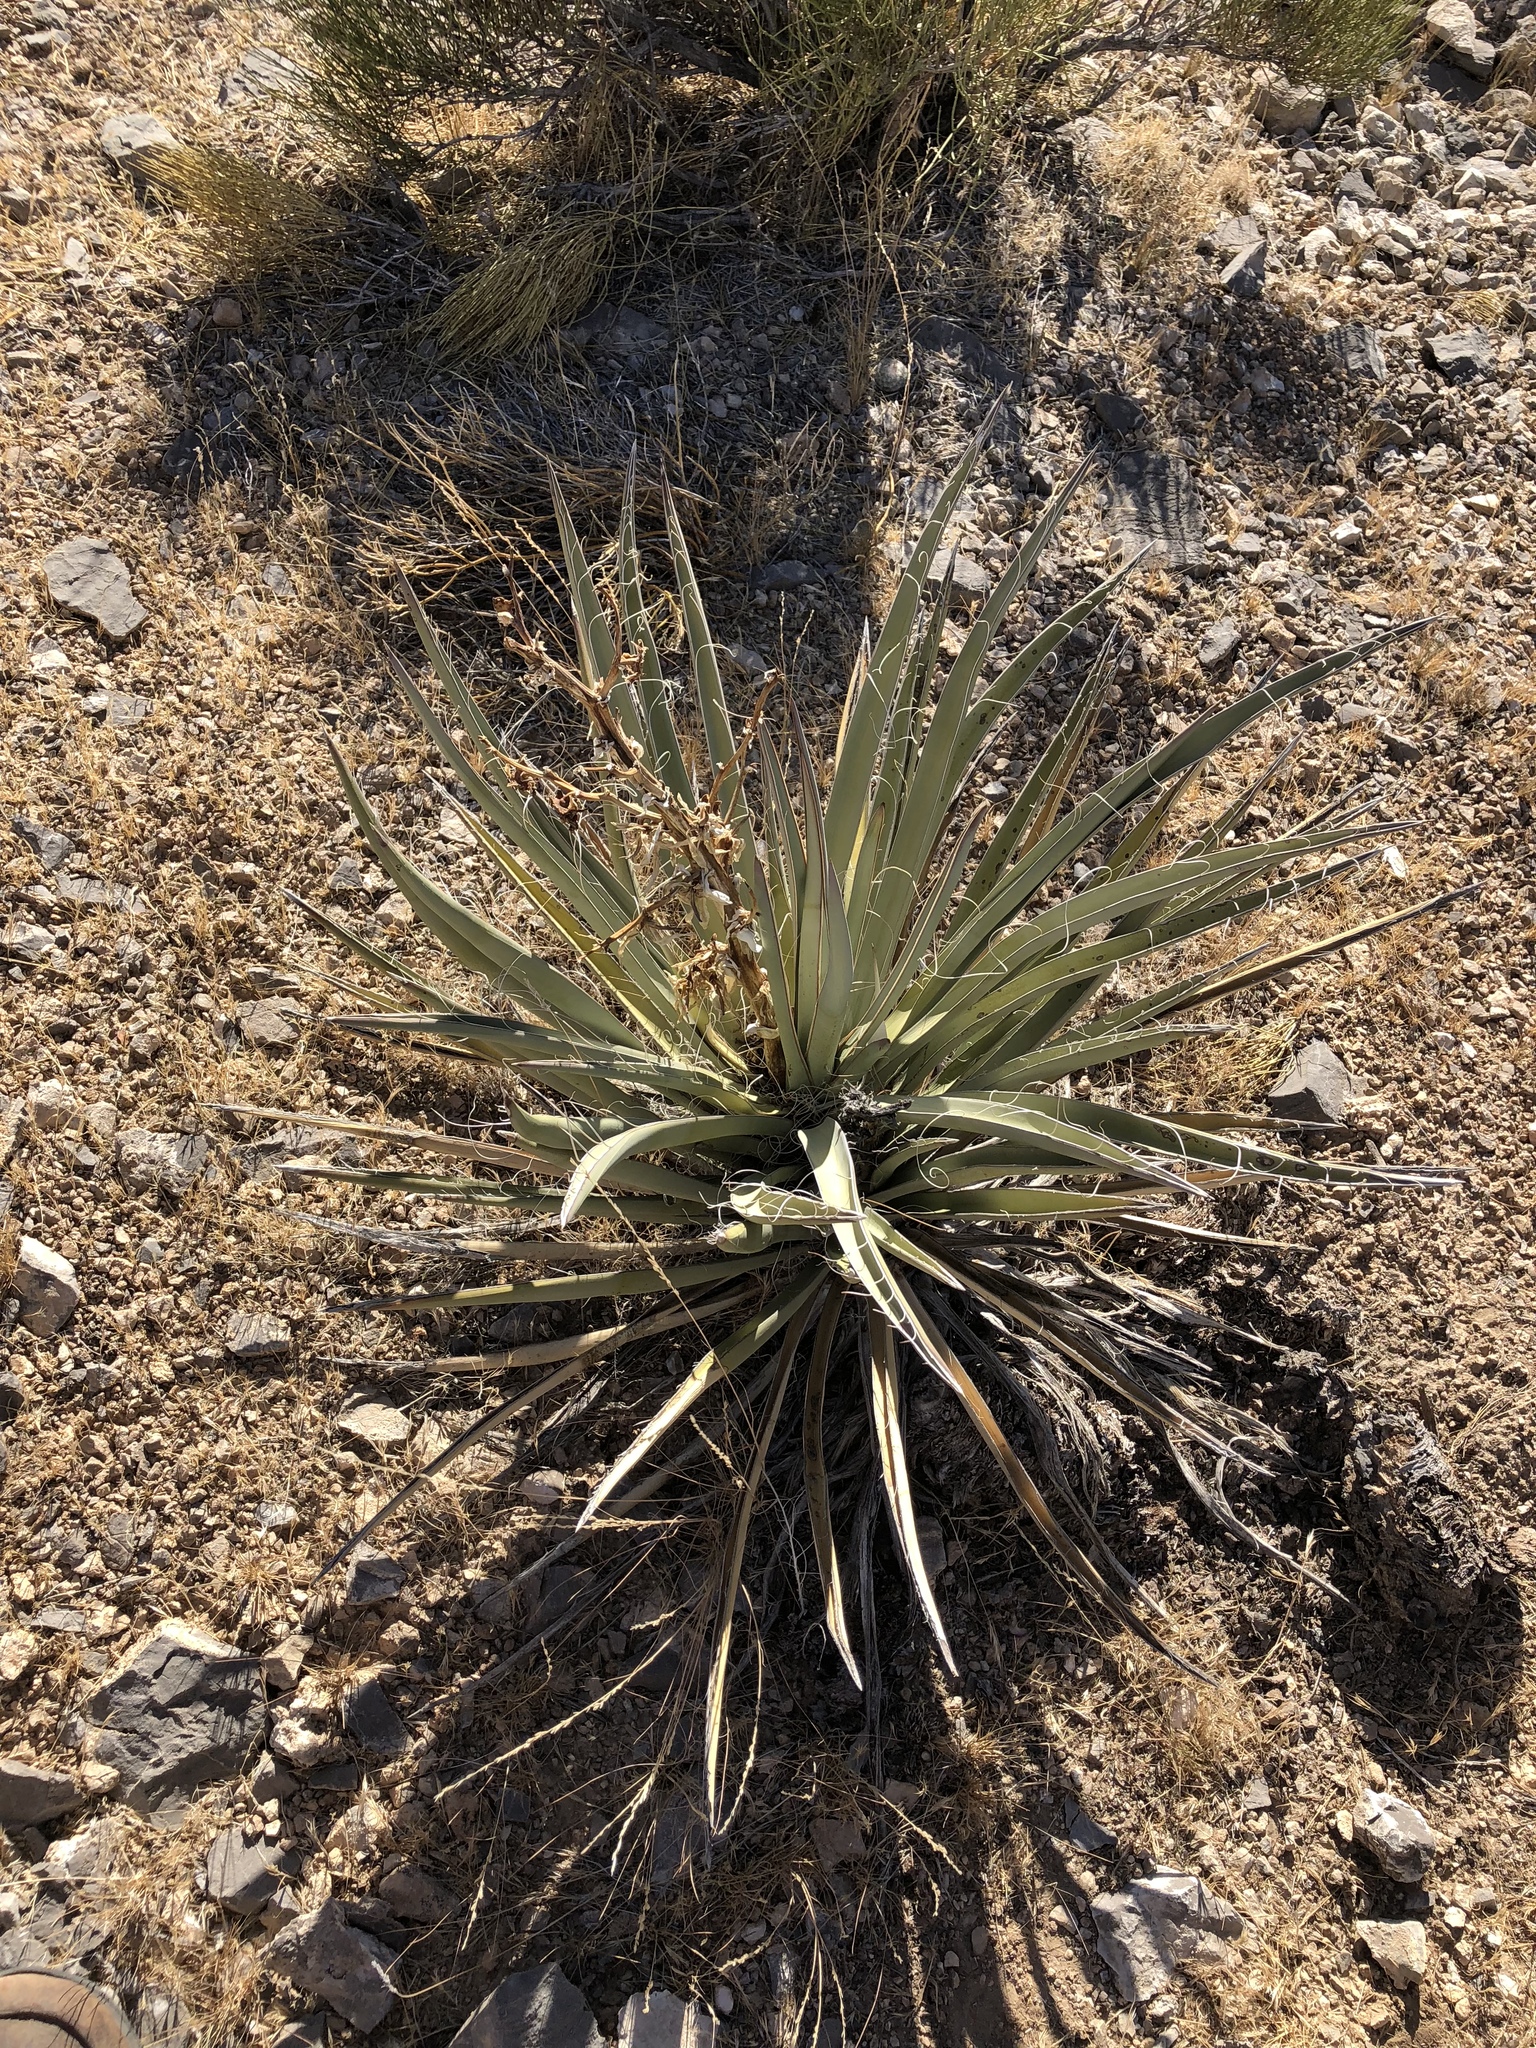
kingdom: Plantae
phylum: Tracheophyta
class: Liliopsida
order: Asparagales
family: Asparagaceae
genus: Yucca
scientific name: Yucca baccata
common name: Banana yucca
